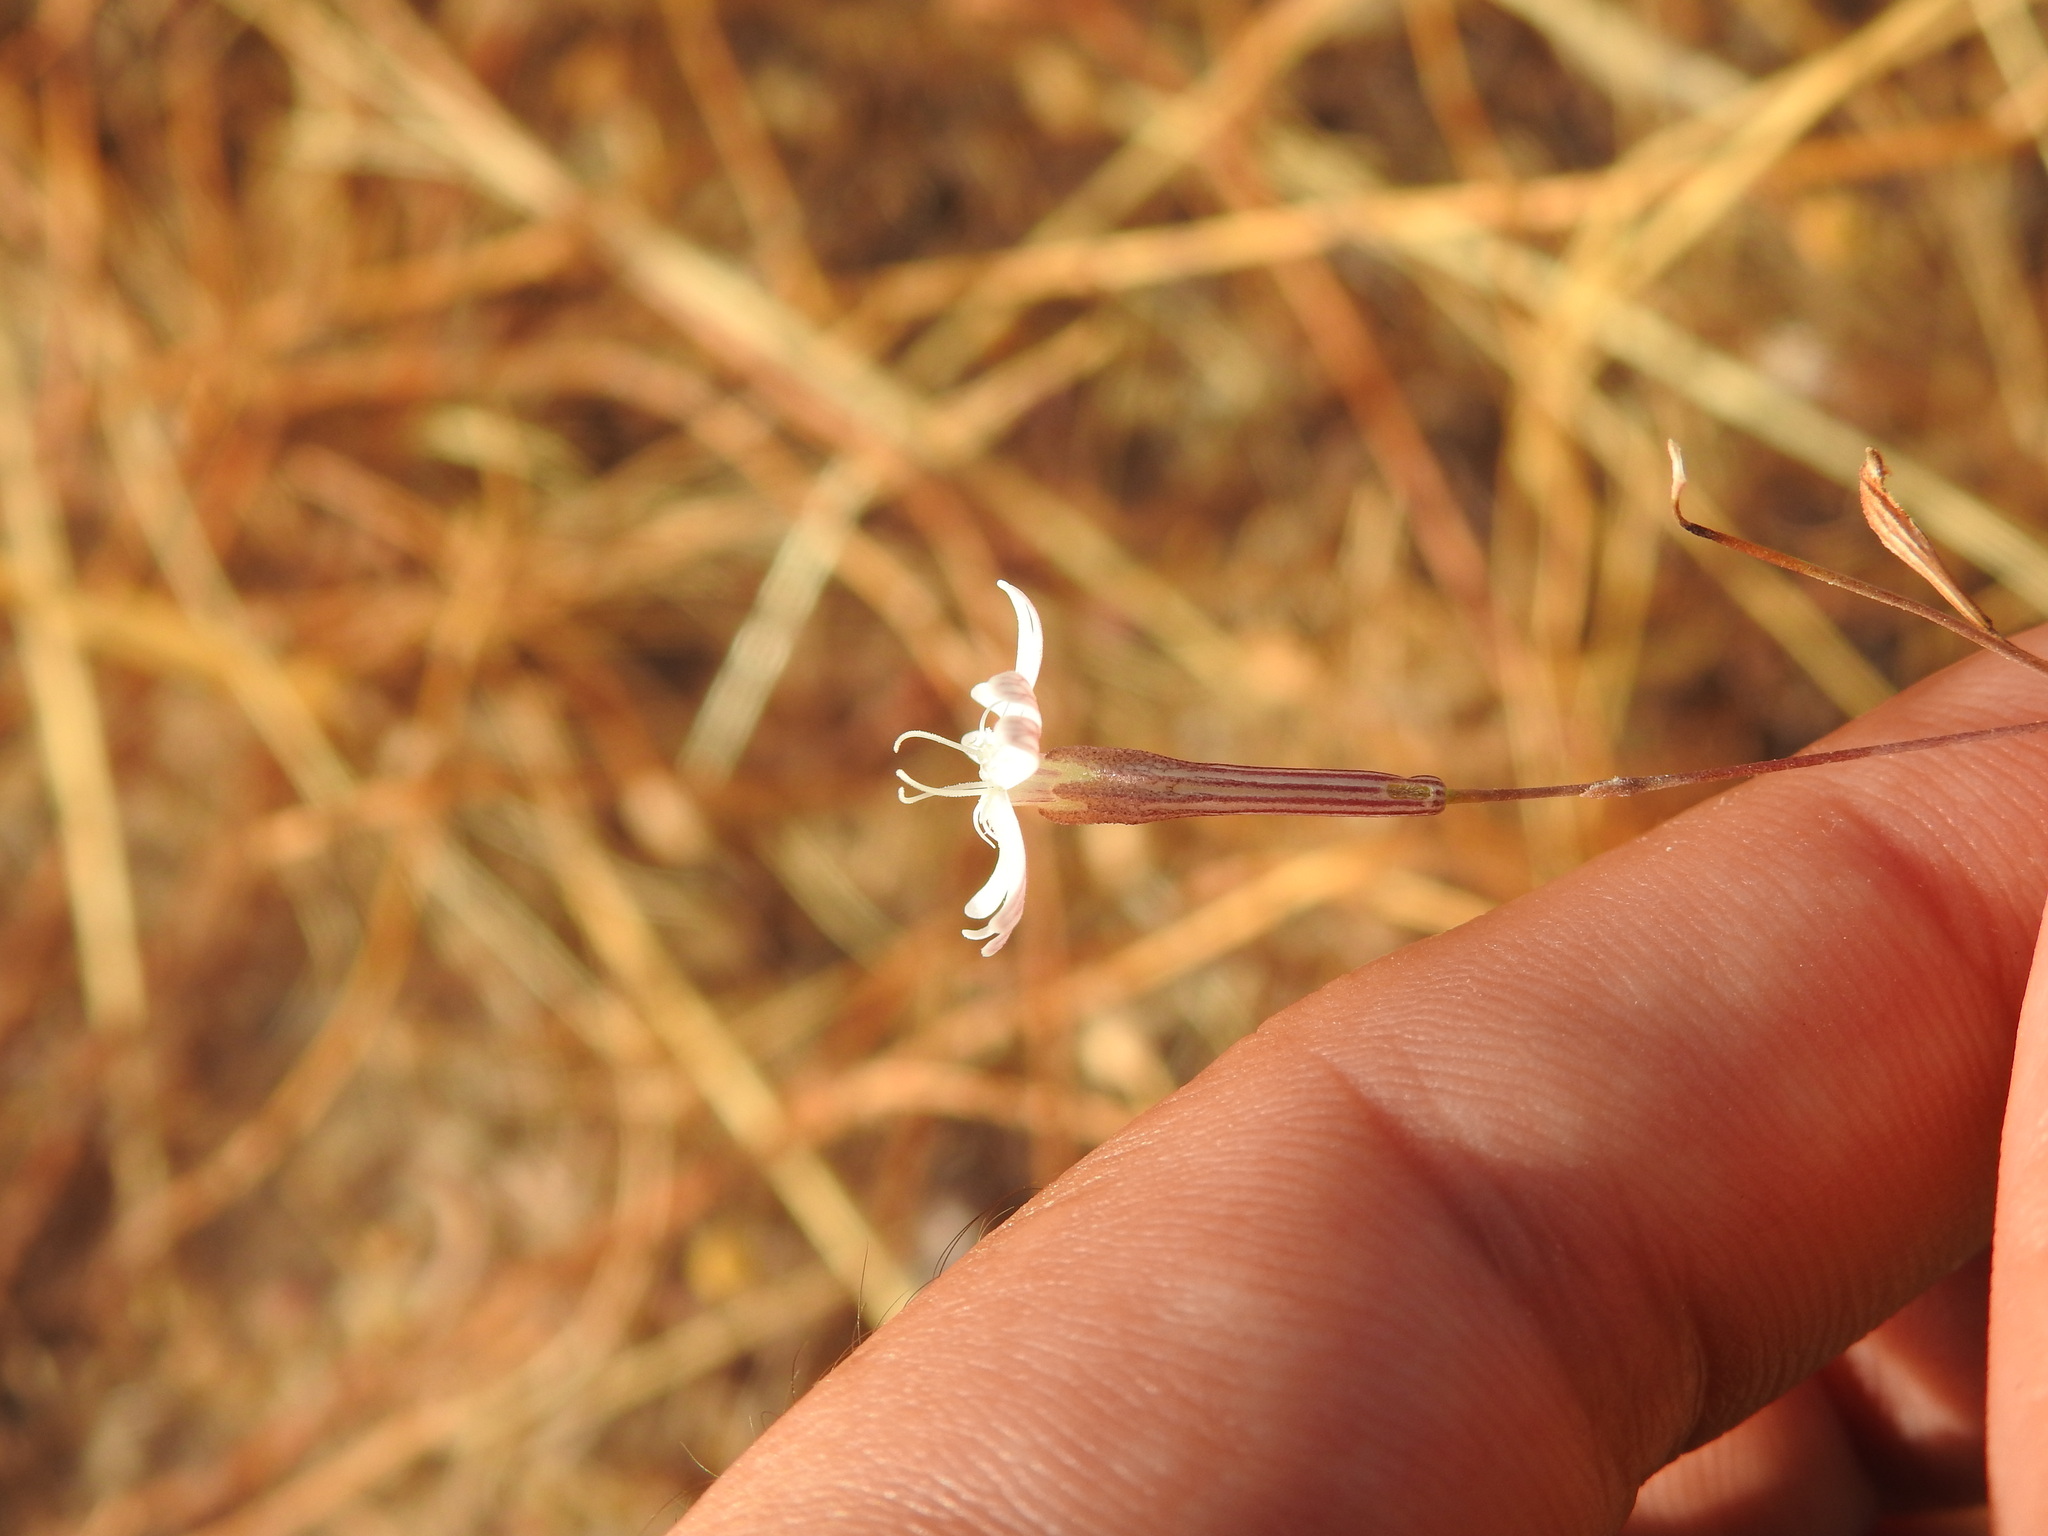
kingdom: Plantae
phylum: Tracheophyta
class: Magnoliopsida
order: Caryophyllales
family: Caryophyllaceae
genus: Silene
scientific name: Silene portensis
